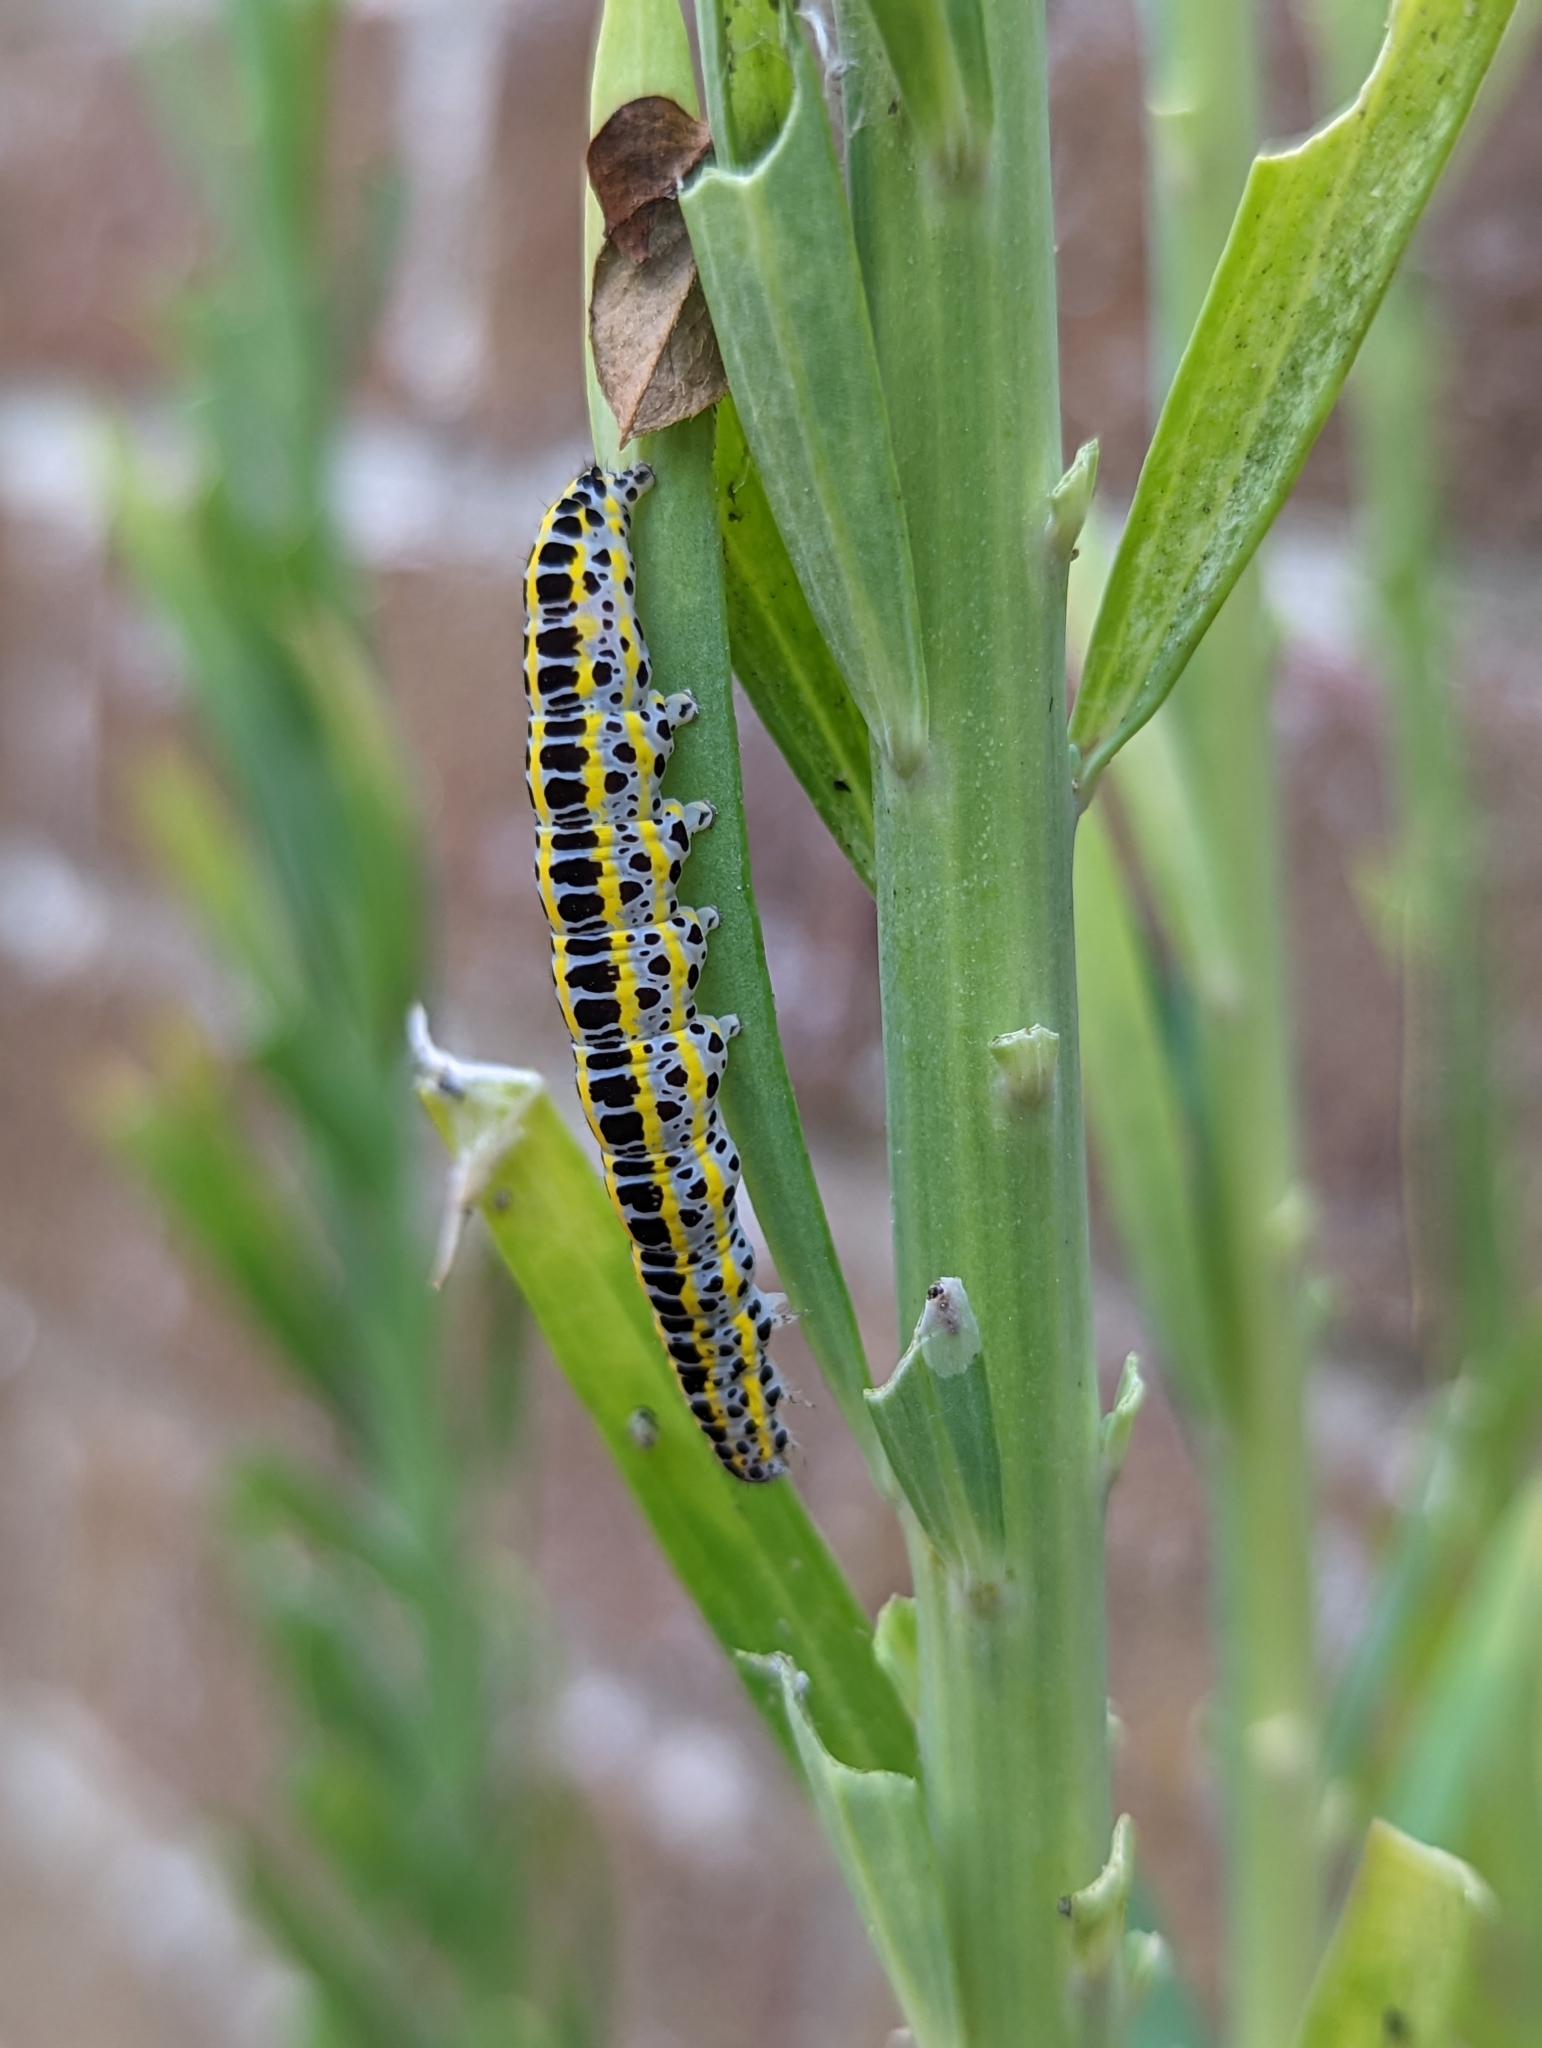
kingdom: Animalia
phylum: Arthropoda
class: Insecta
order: Lepidoptera
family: Noctuidae
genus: Calophasia
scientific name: Calophasia lunula
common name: Toadflax brocade
